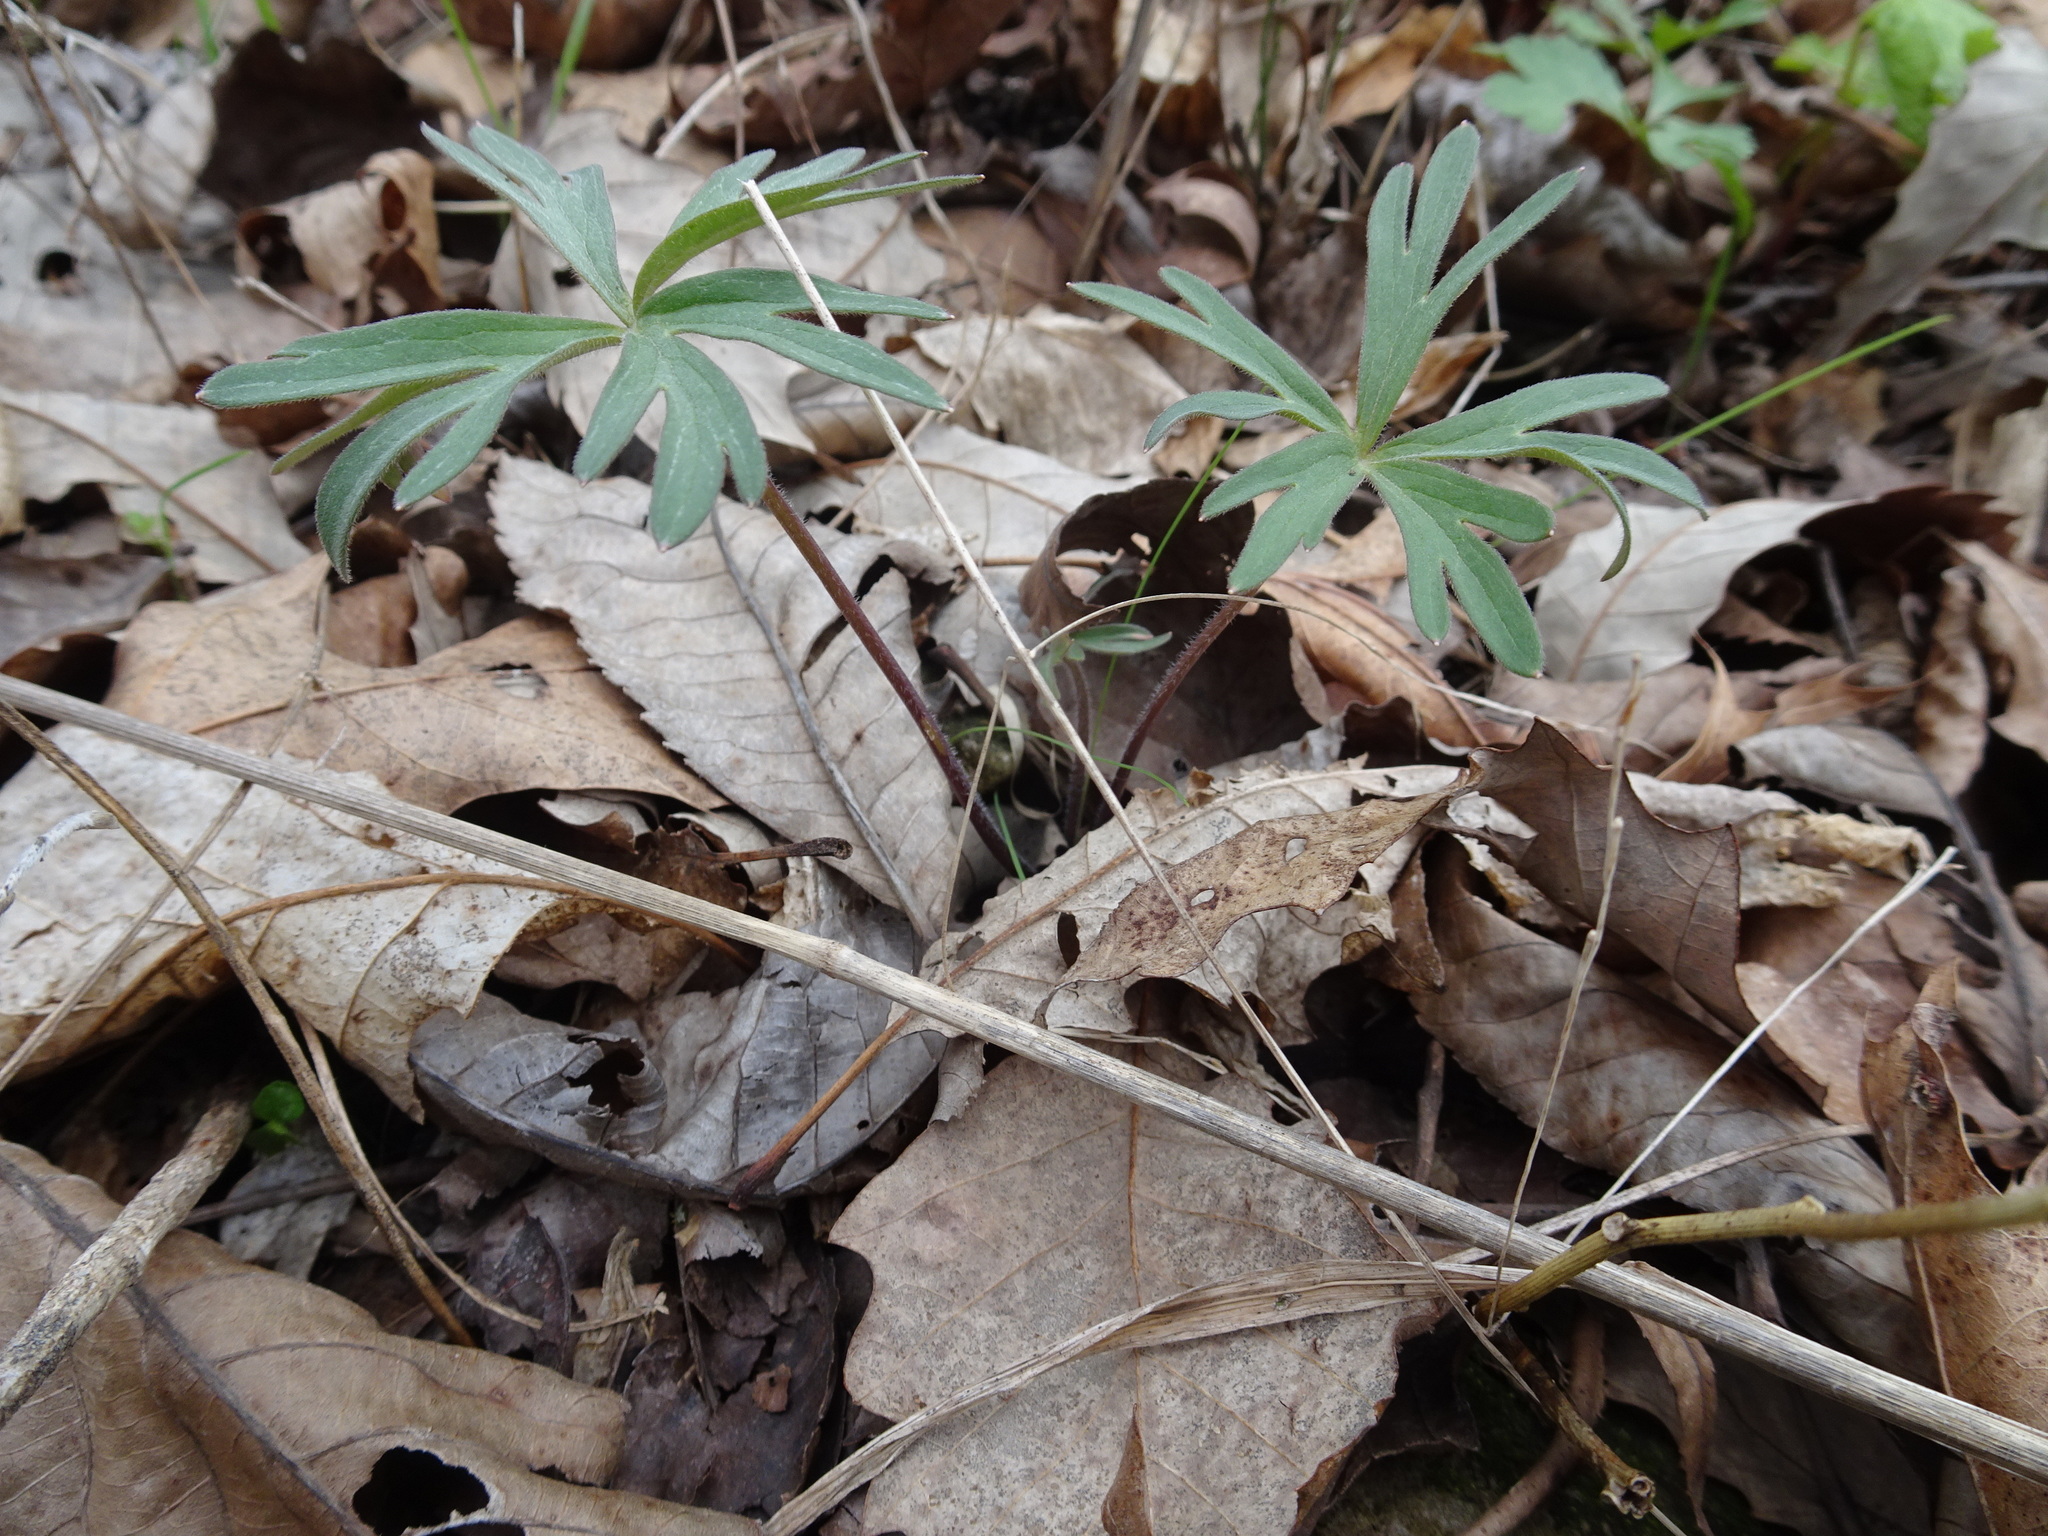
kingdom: Plantae
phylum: Tracheophyta
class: Magnoliopsida
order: Ranunculales
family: Ranunculaceae
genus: Delphinium
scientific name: Delphinium tricorne
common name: Dwarf larkspur
